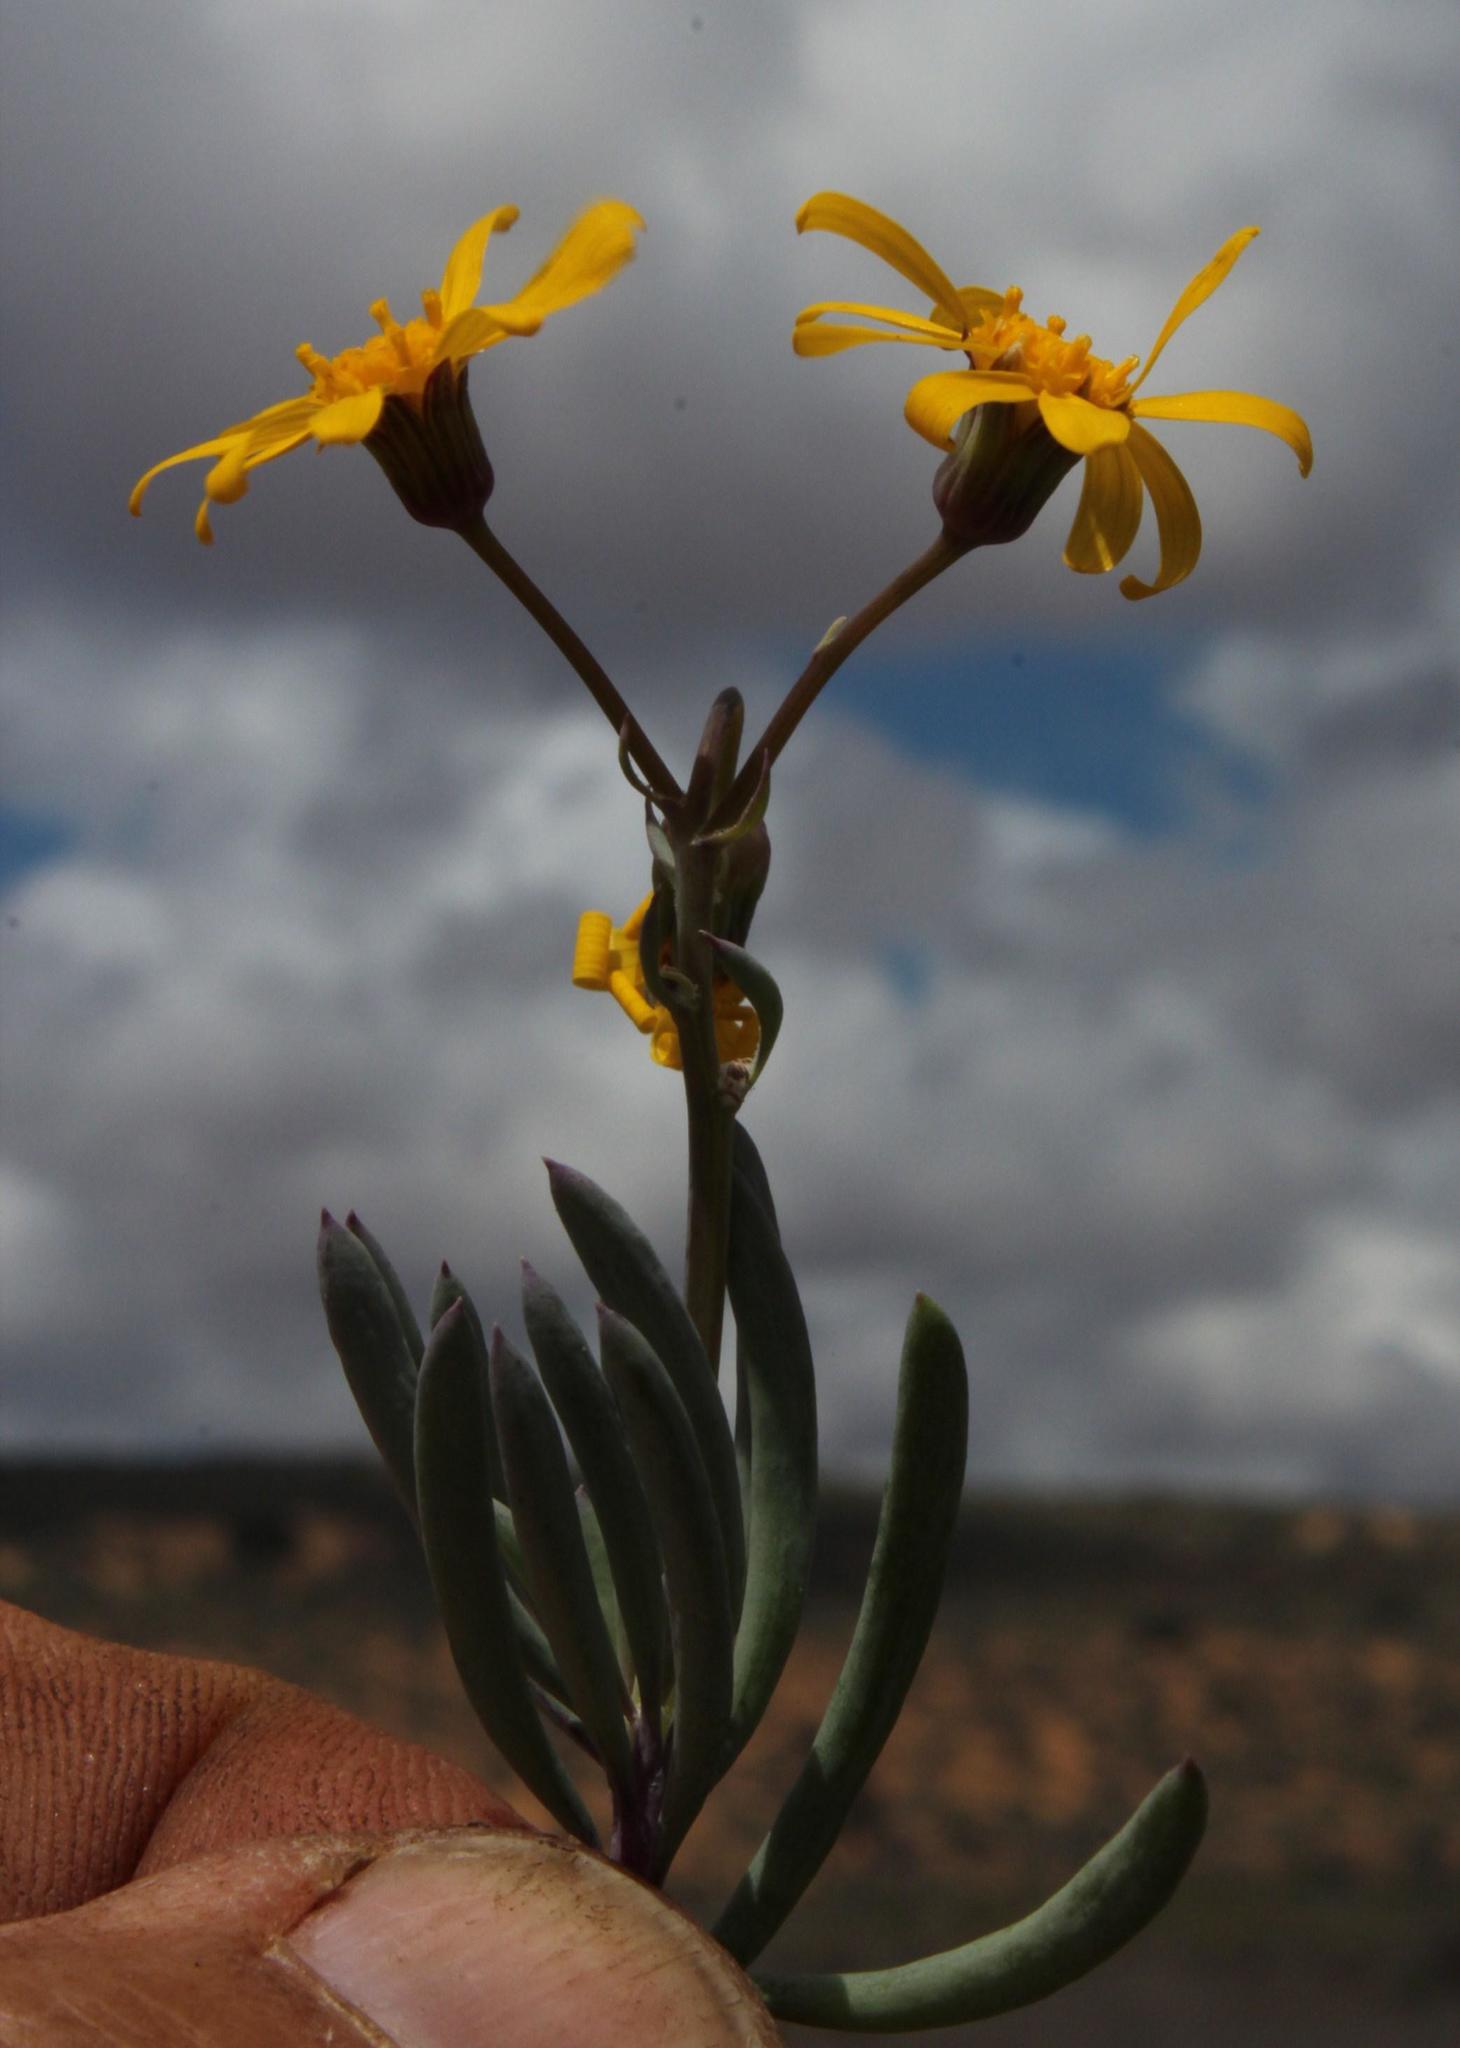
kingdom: Plantae
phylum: Tracheophyta
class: Magnoliopsida
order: Asterales
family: Asteraceae
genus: Crassothonna
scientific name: Crassothonna cylindrica
